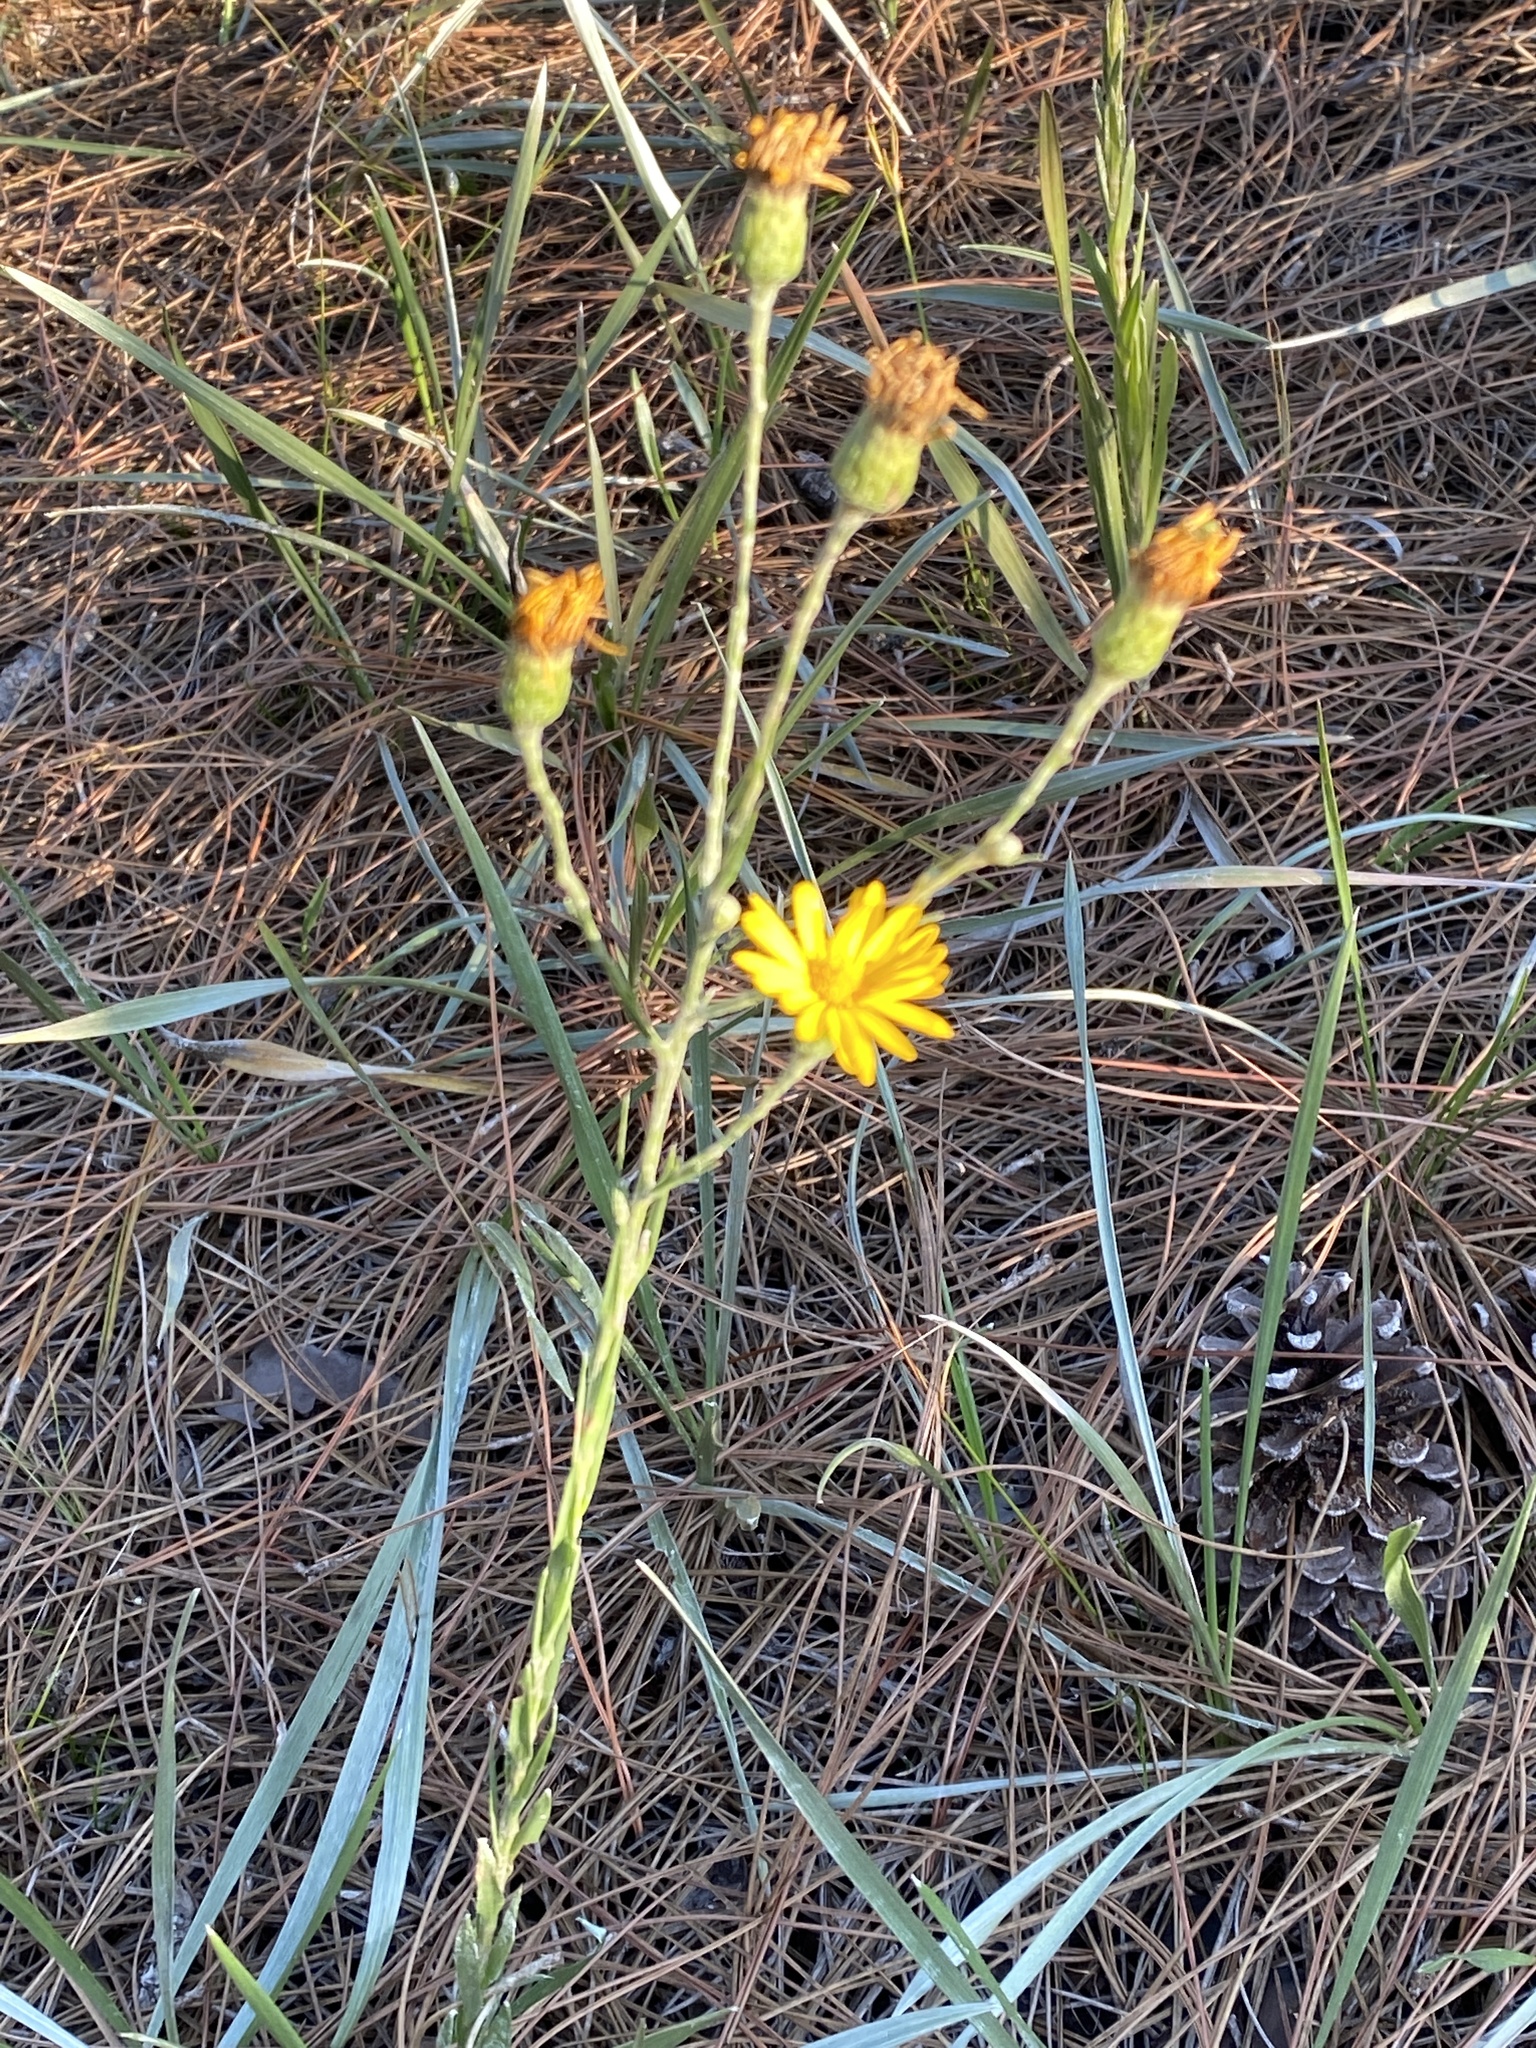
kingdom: Plantae
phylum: Tracheophyta
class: Magnoliopsida
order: Asterales
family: Asteraceae
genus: Pityopsis
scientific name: Pityopsis graminifolia
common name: Grass-leaf golden-aster
